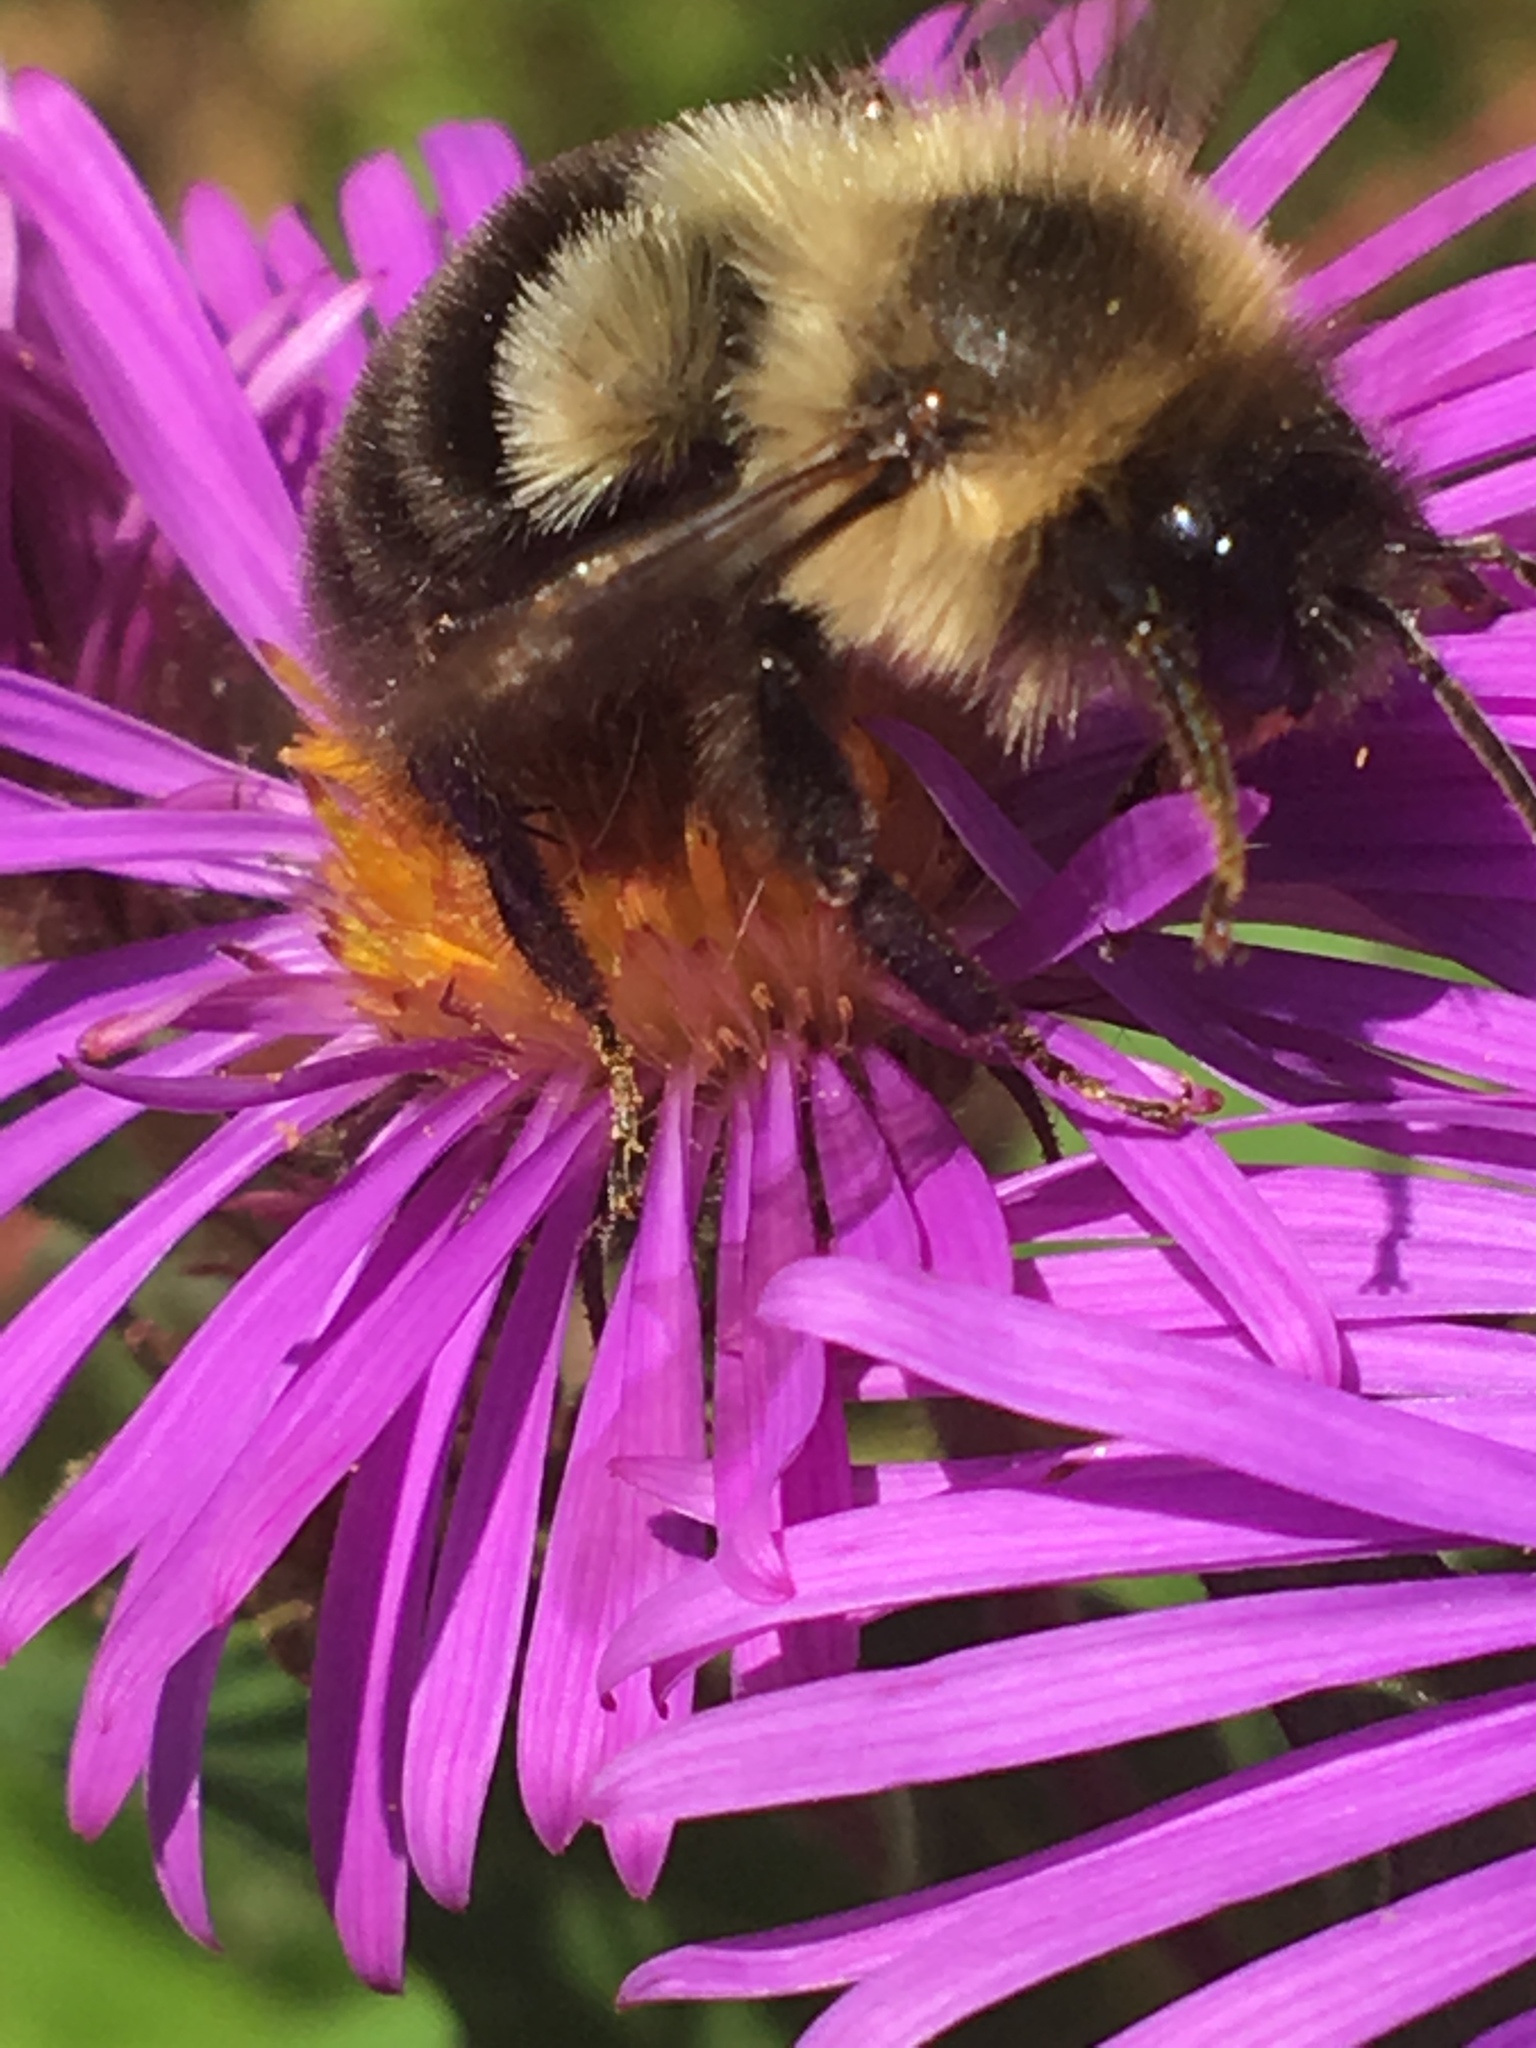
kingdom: Animalia
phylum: Arthropoda
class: Insecta
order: Hymenoptera
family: Apidae
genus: Bombus
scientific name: Bombus impatiens
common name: Common eastern bumble bee
